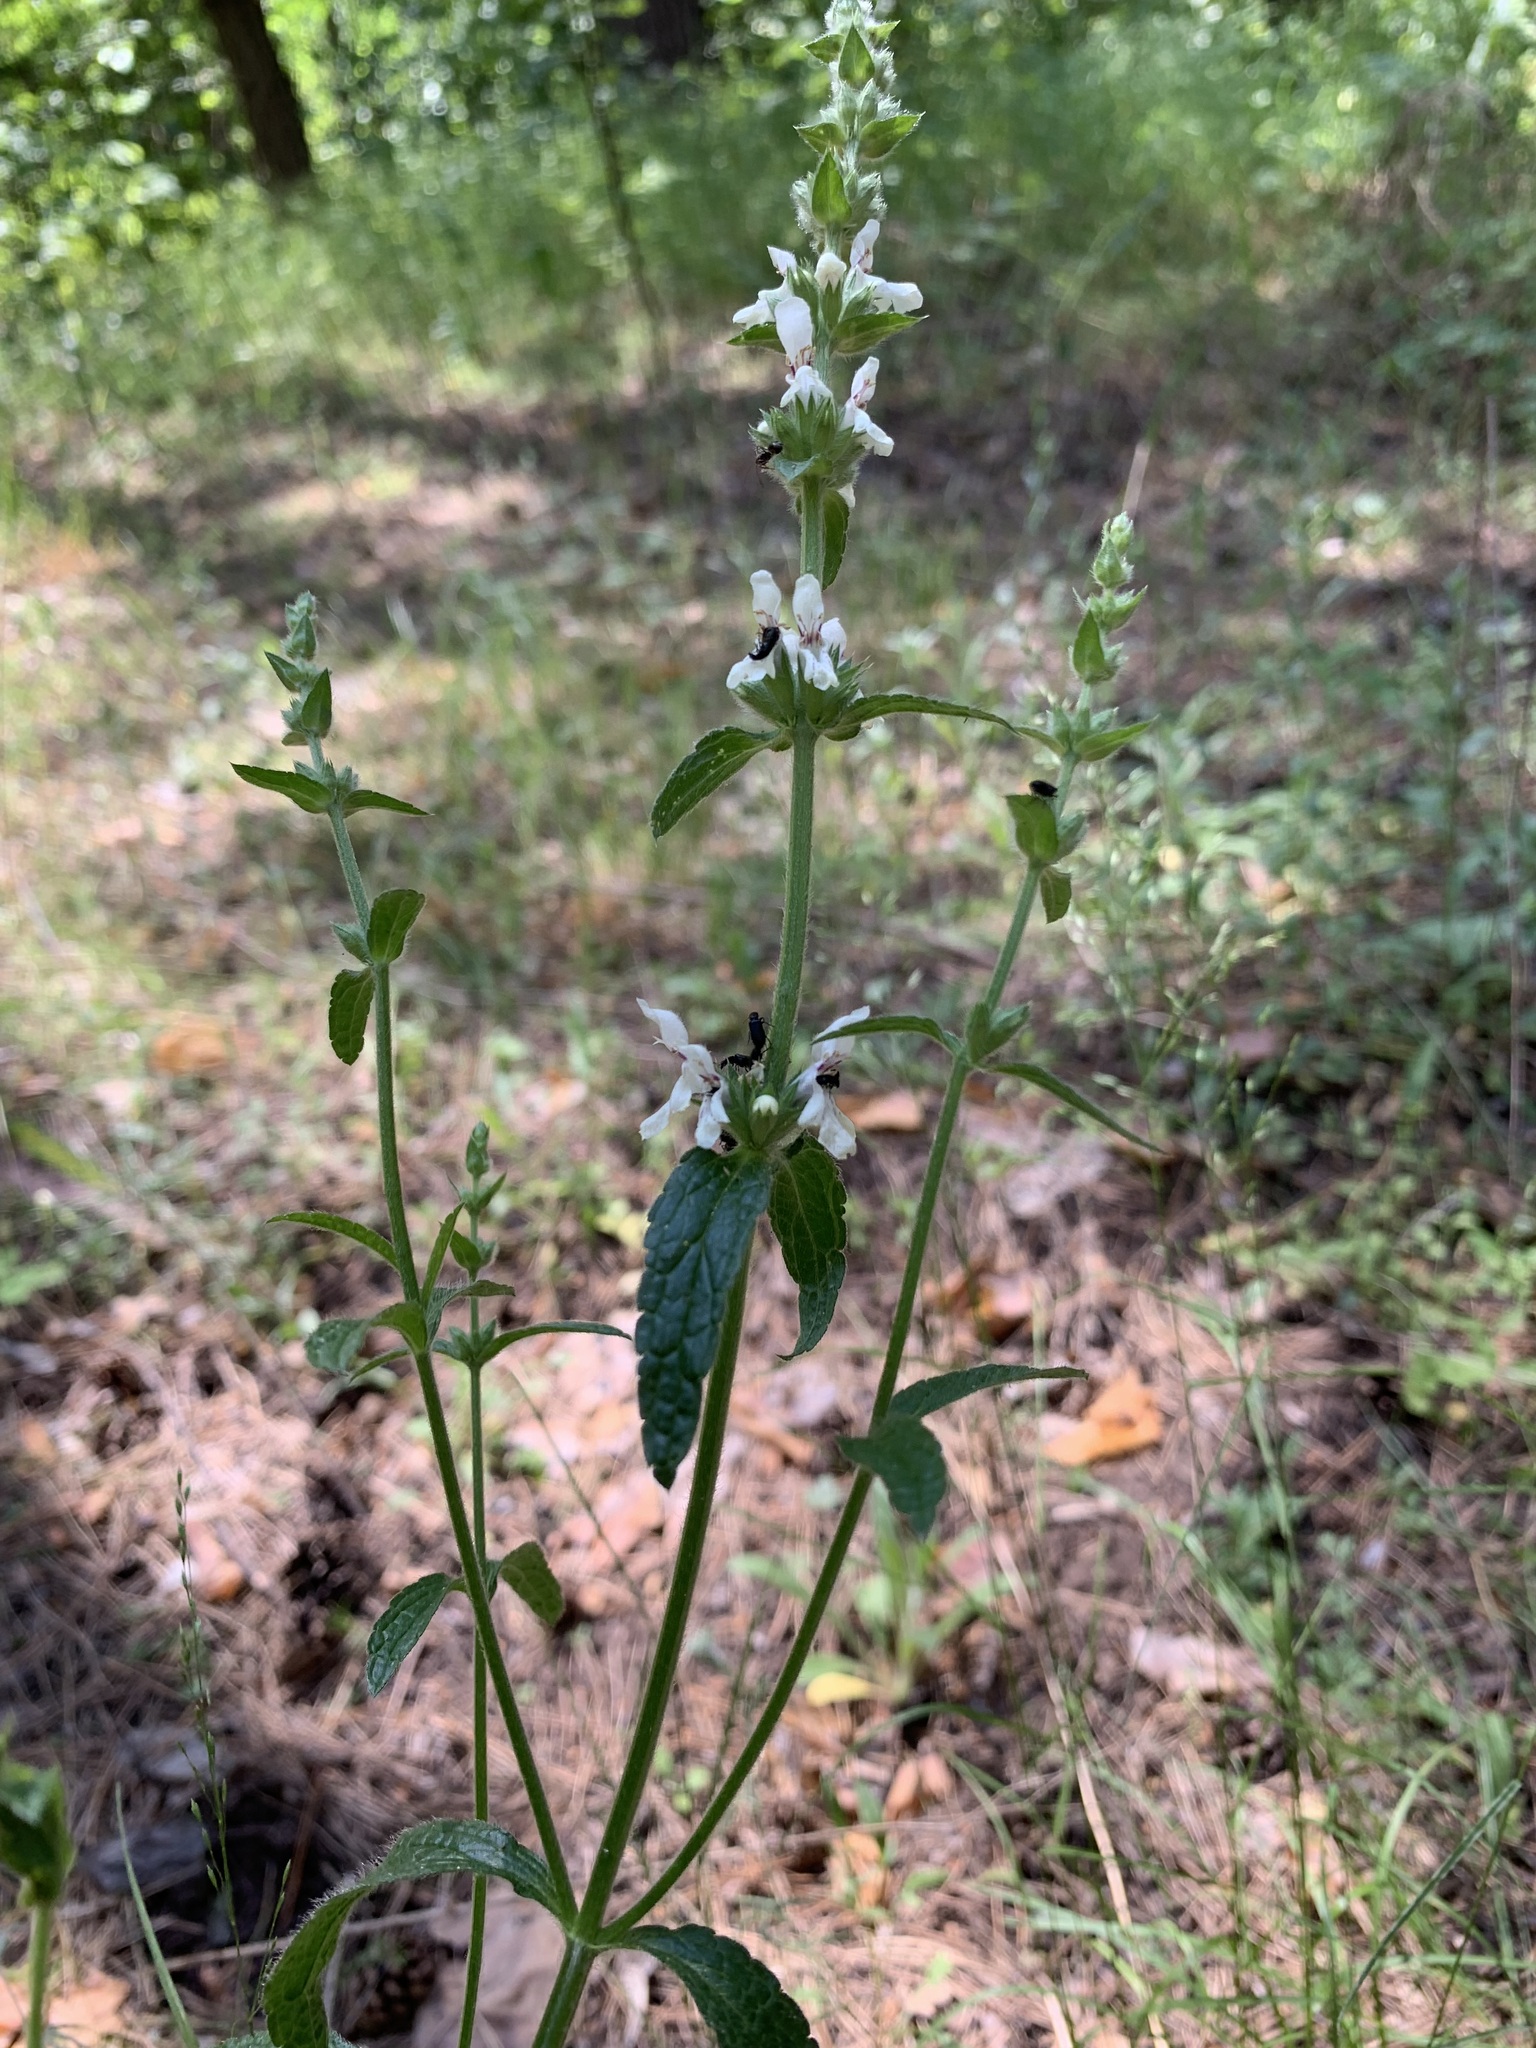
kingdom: Plantae
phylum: Tracheophyta
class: Magnoliopsida
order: Lamiales
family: Lamiaceae
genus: Stachys
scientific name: Stachys recta
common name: Perennial yellow-woundwort
